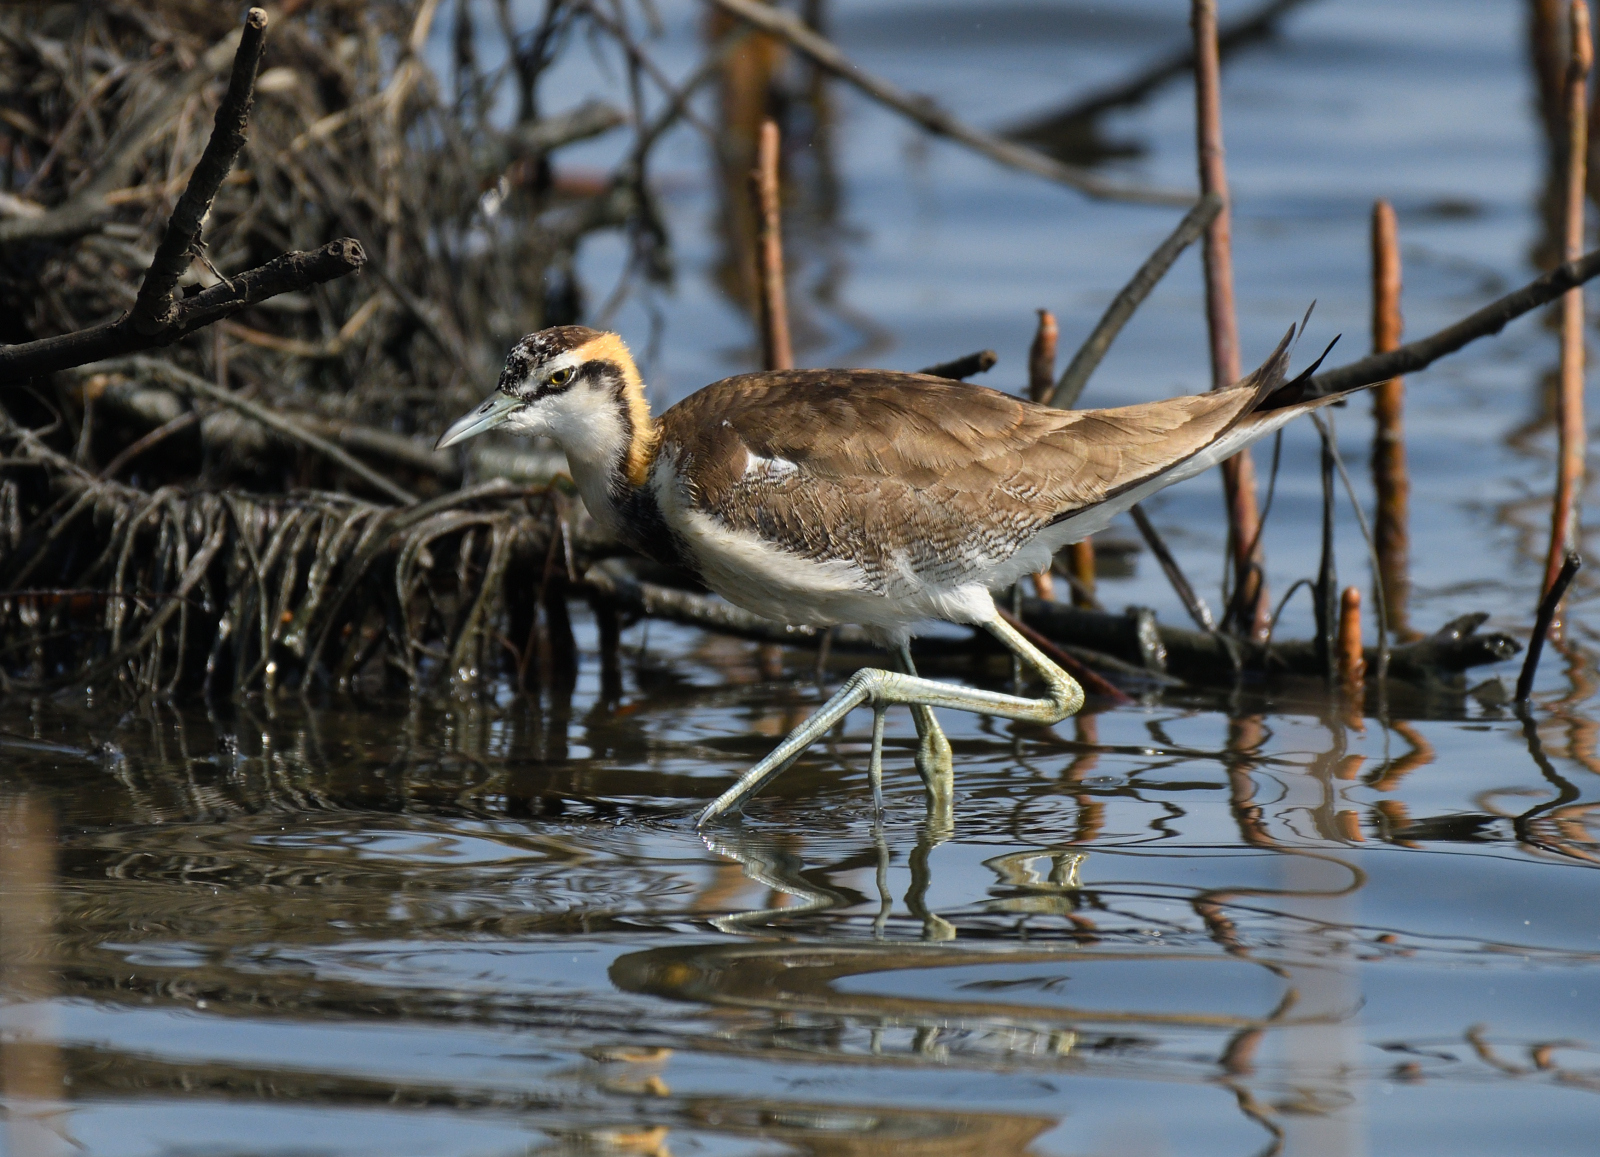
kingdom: Animalia
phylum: Chordata
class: Aves
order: Charadriiformes
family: Jacanidae
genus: Hydrophasianus
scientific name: Hydrophasianus chirurgus
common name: Pheasant-tailed jacana
